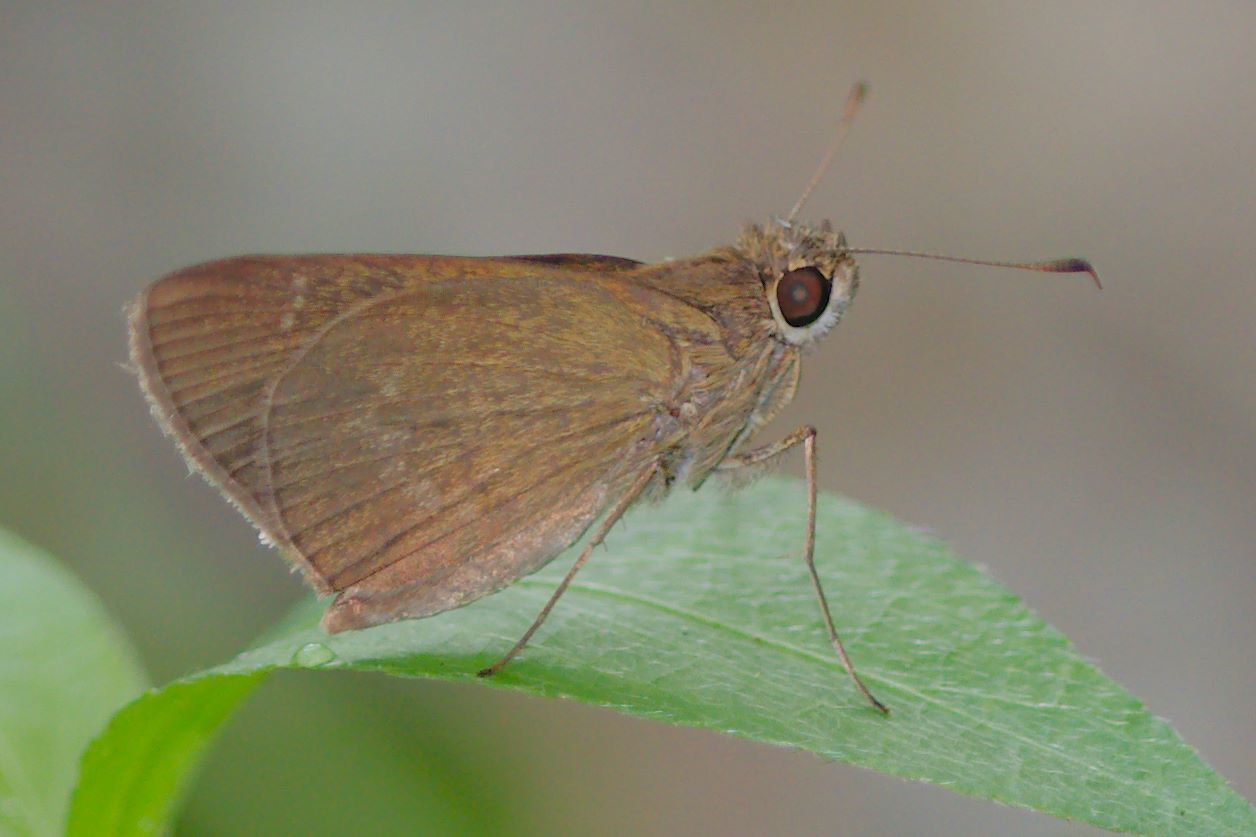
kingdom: Animalia
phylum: Arthropoda
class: Insecta
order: Lepidoptera
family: Hesperiidae
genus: Cymaenes
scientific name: Cymaenes tripunctus
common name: Dingy dotted skipper
